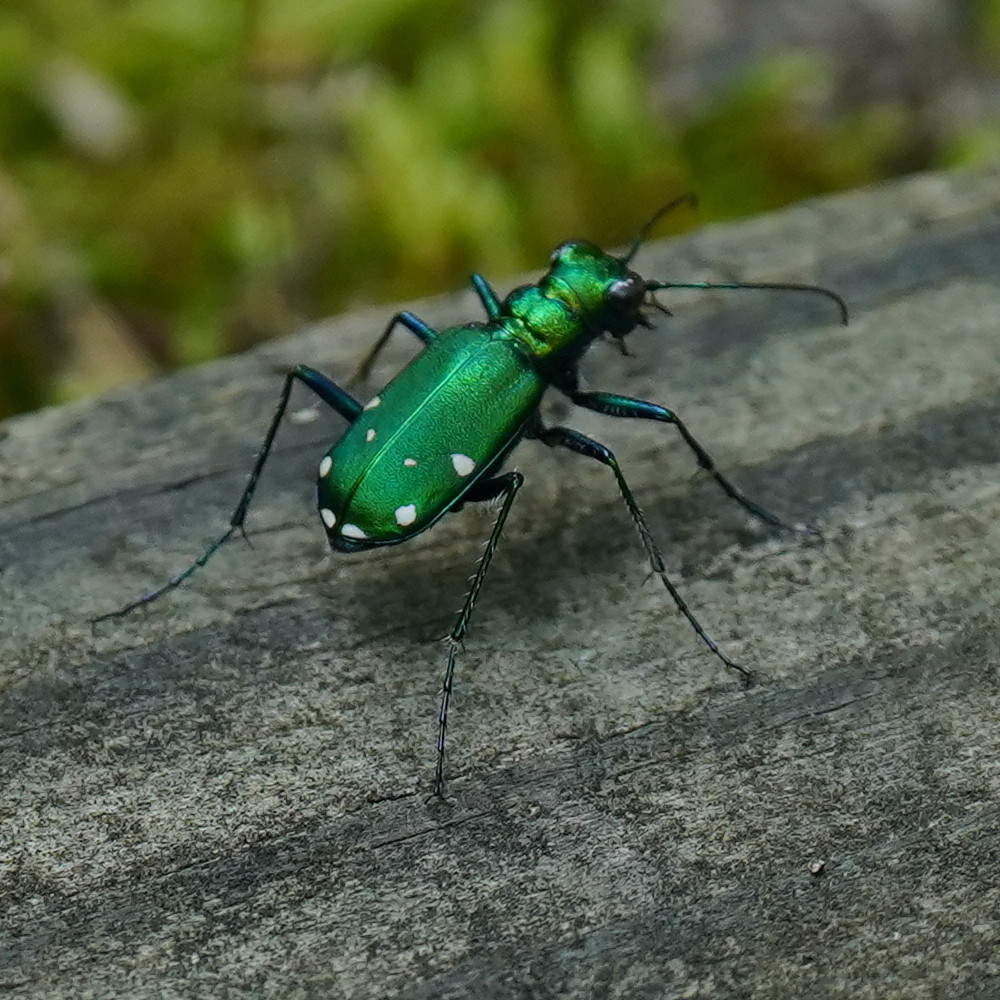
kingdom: Animalia
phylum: Arthropoda
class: Insecta
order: Coleoptera
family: Carabidae
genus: Cicindela
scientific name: Cicindela sexguttata
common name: Six-spotted tiger beetle
